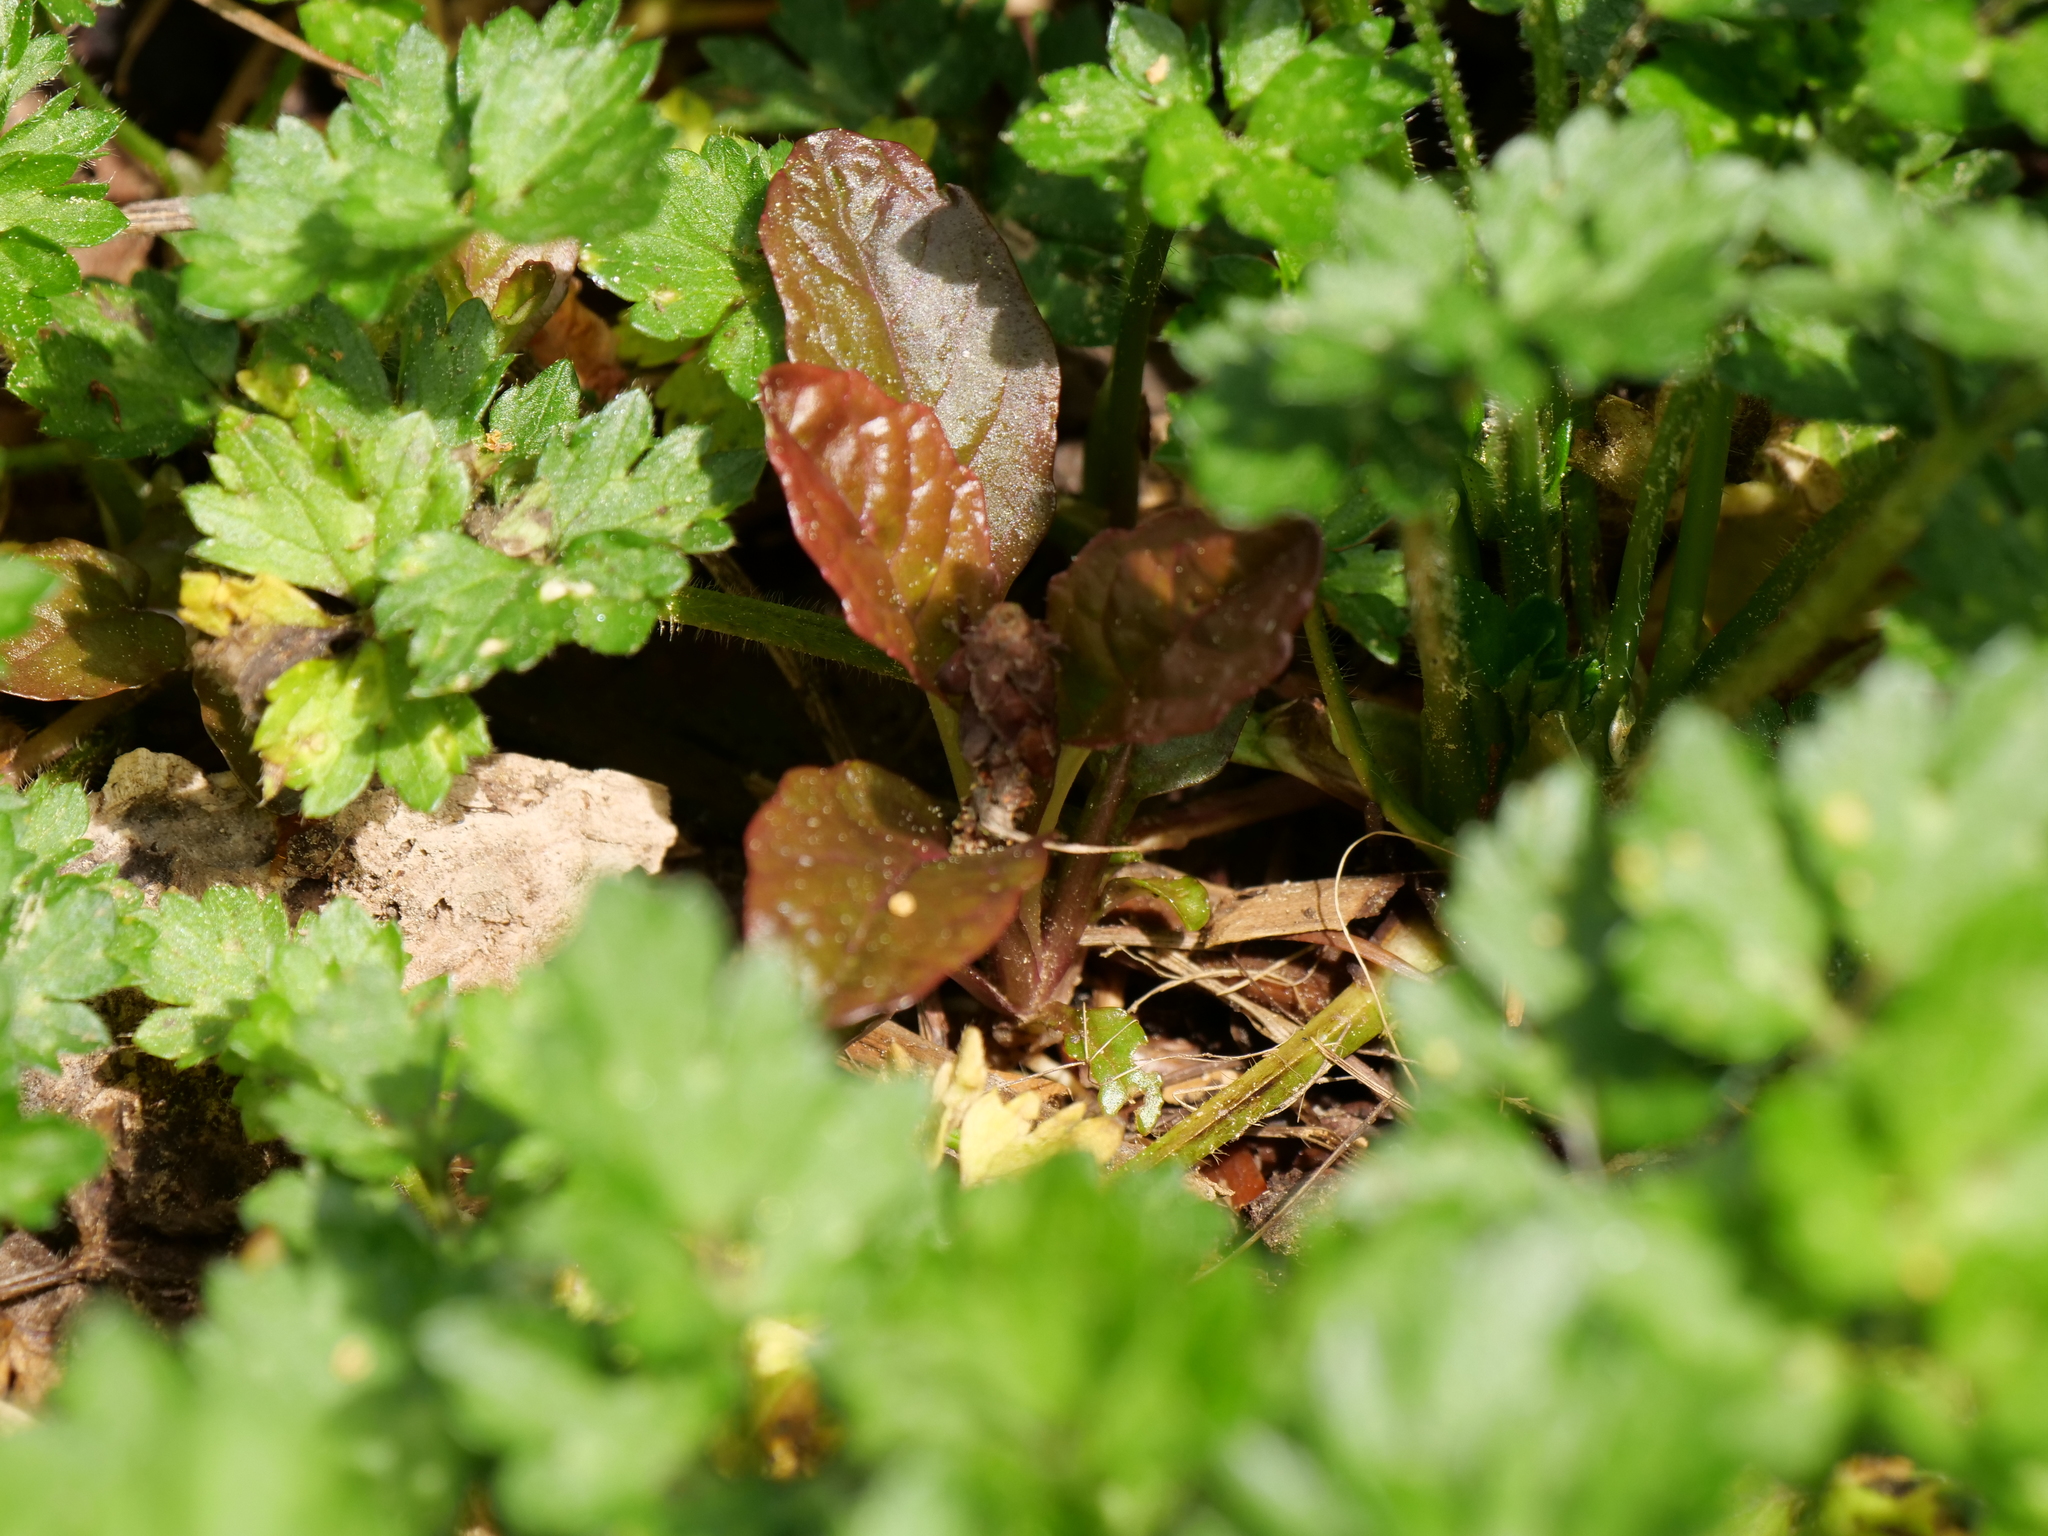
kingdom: Plantae
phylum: Tracheophyta
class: Magnoliopsida
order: Lamiales
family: Lamiaceae
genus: Ajuga
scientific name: Ajuga reptans
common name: Bugle
